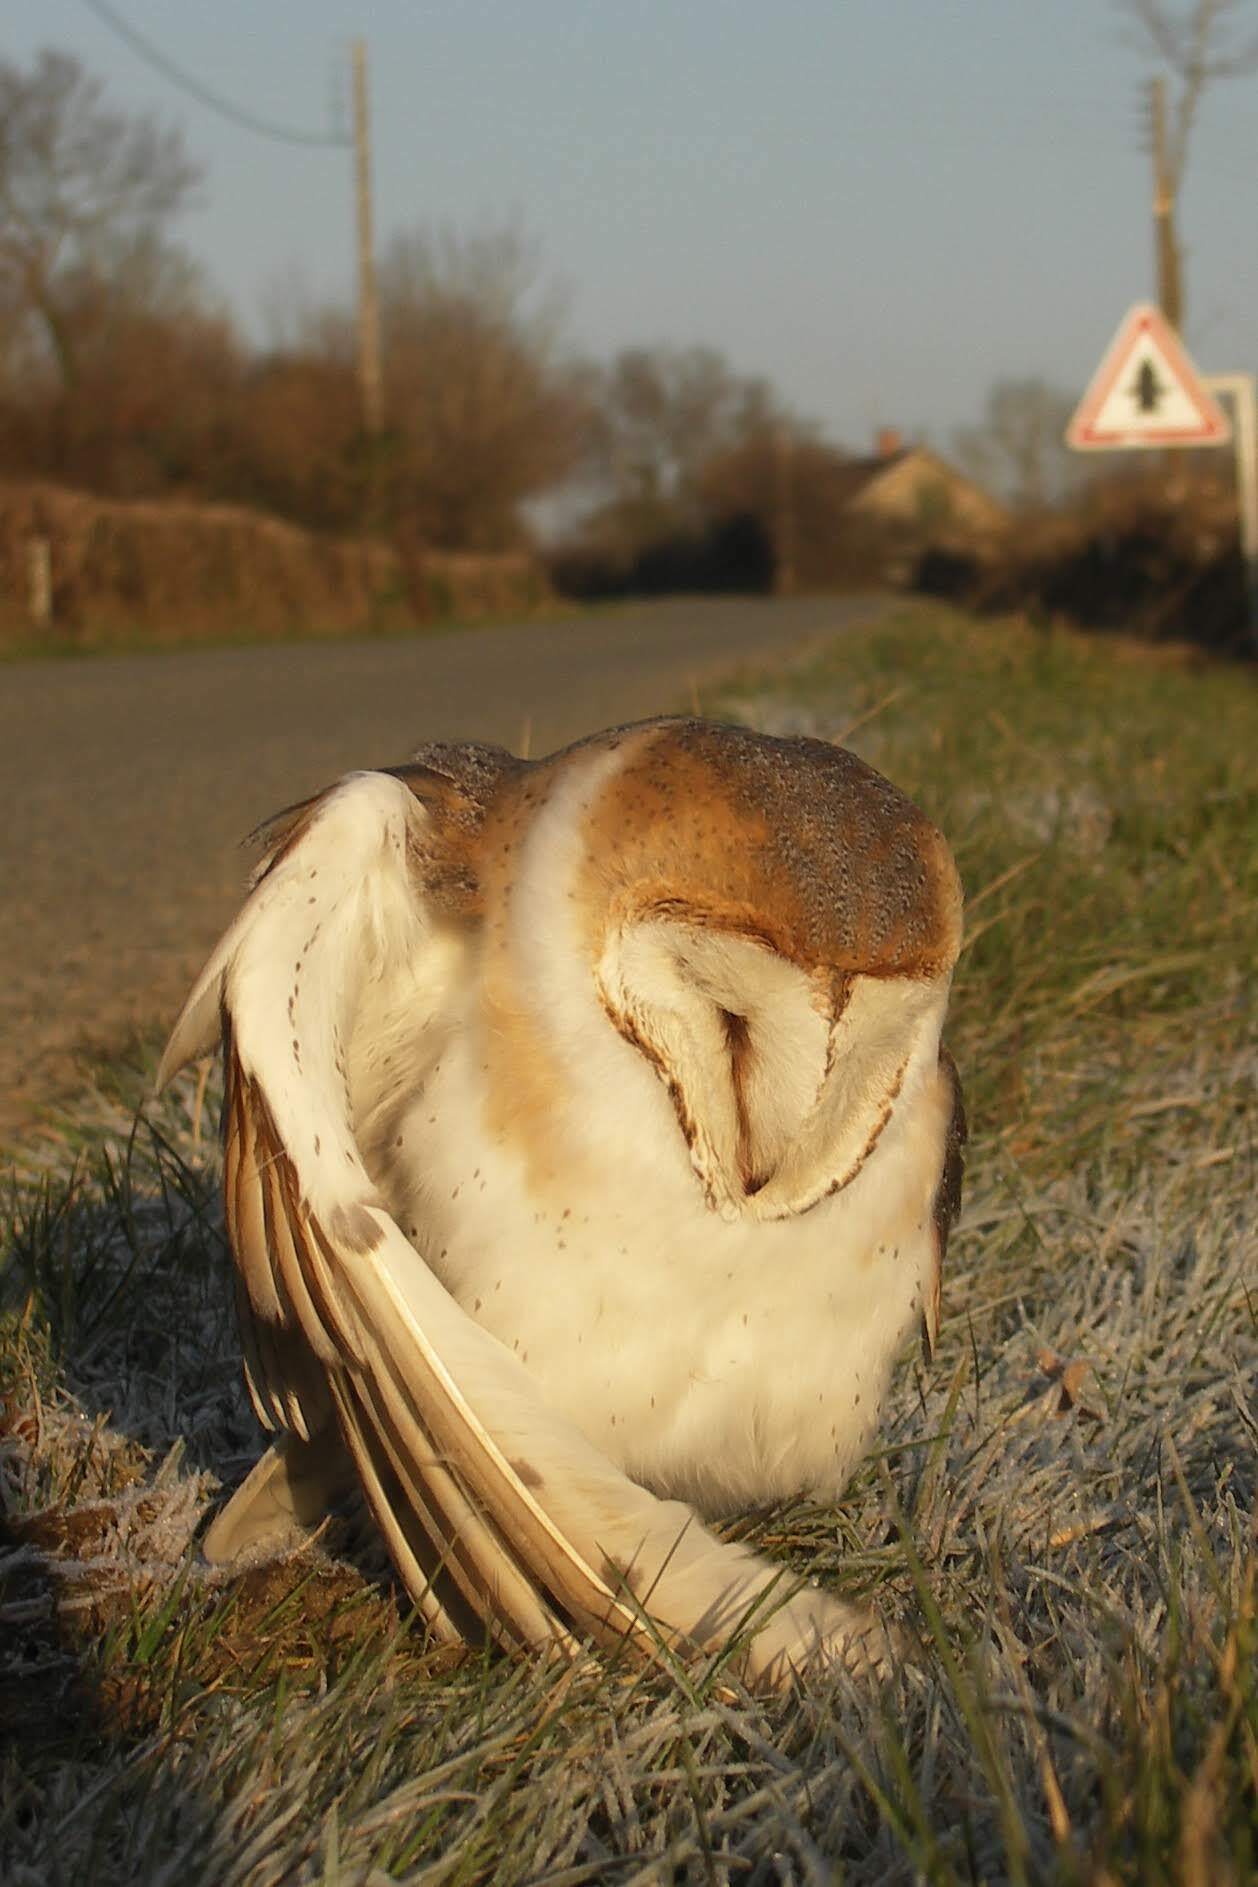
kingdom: Animalia
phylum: Chordata
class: Aves
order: Strigiformes
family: Tytonidae
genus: Tyto
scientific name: Tyto alba
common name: Barn owl
